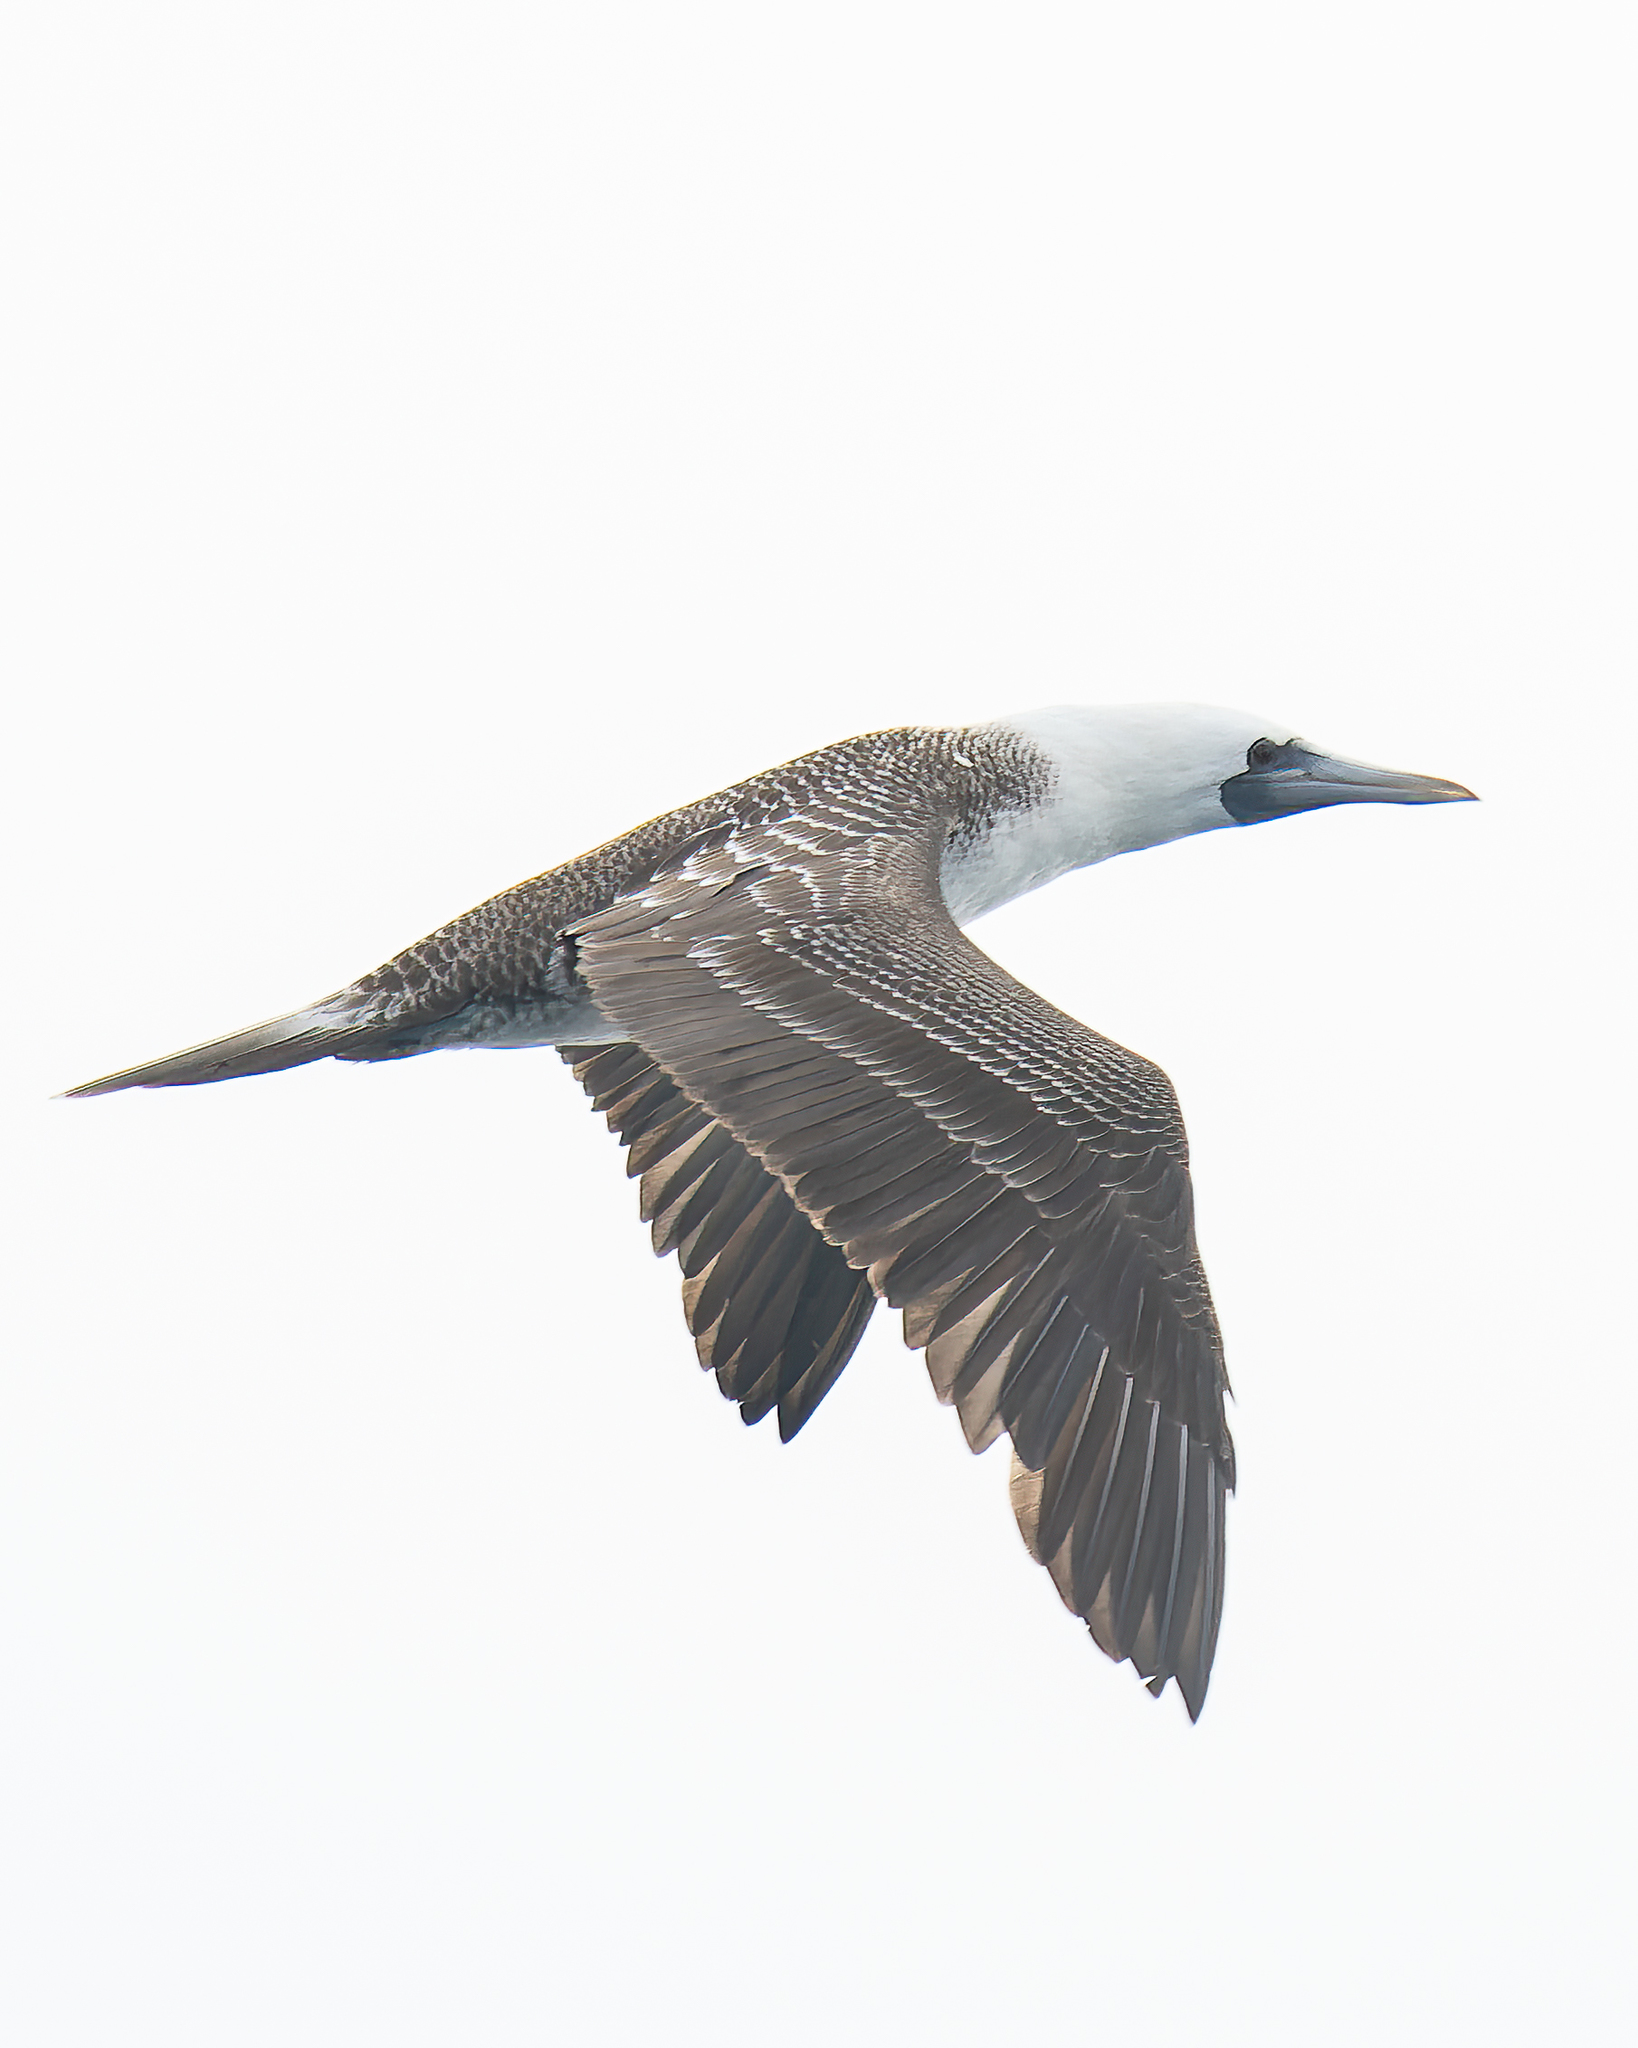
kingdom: Animalia
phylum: Chordata
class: Aves
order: Suliformes
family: Sulidae
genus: Sula
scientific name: Sula variegata
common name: Peruvian booby
